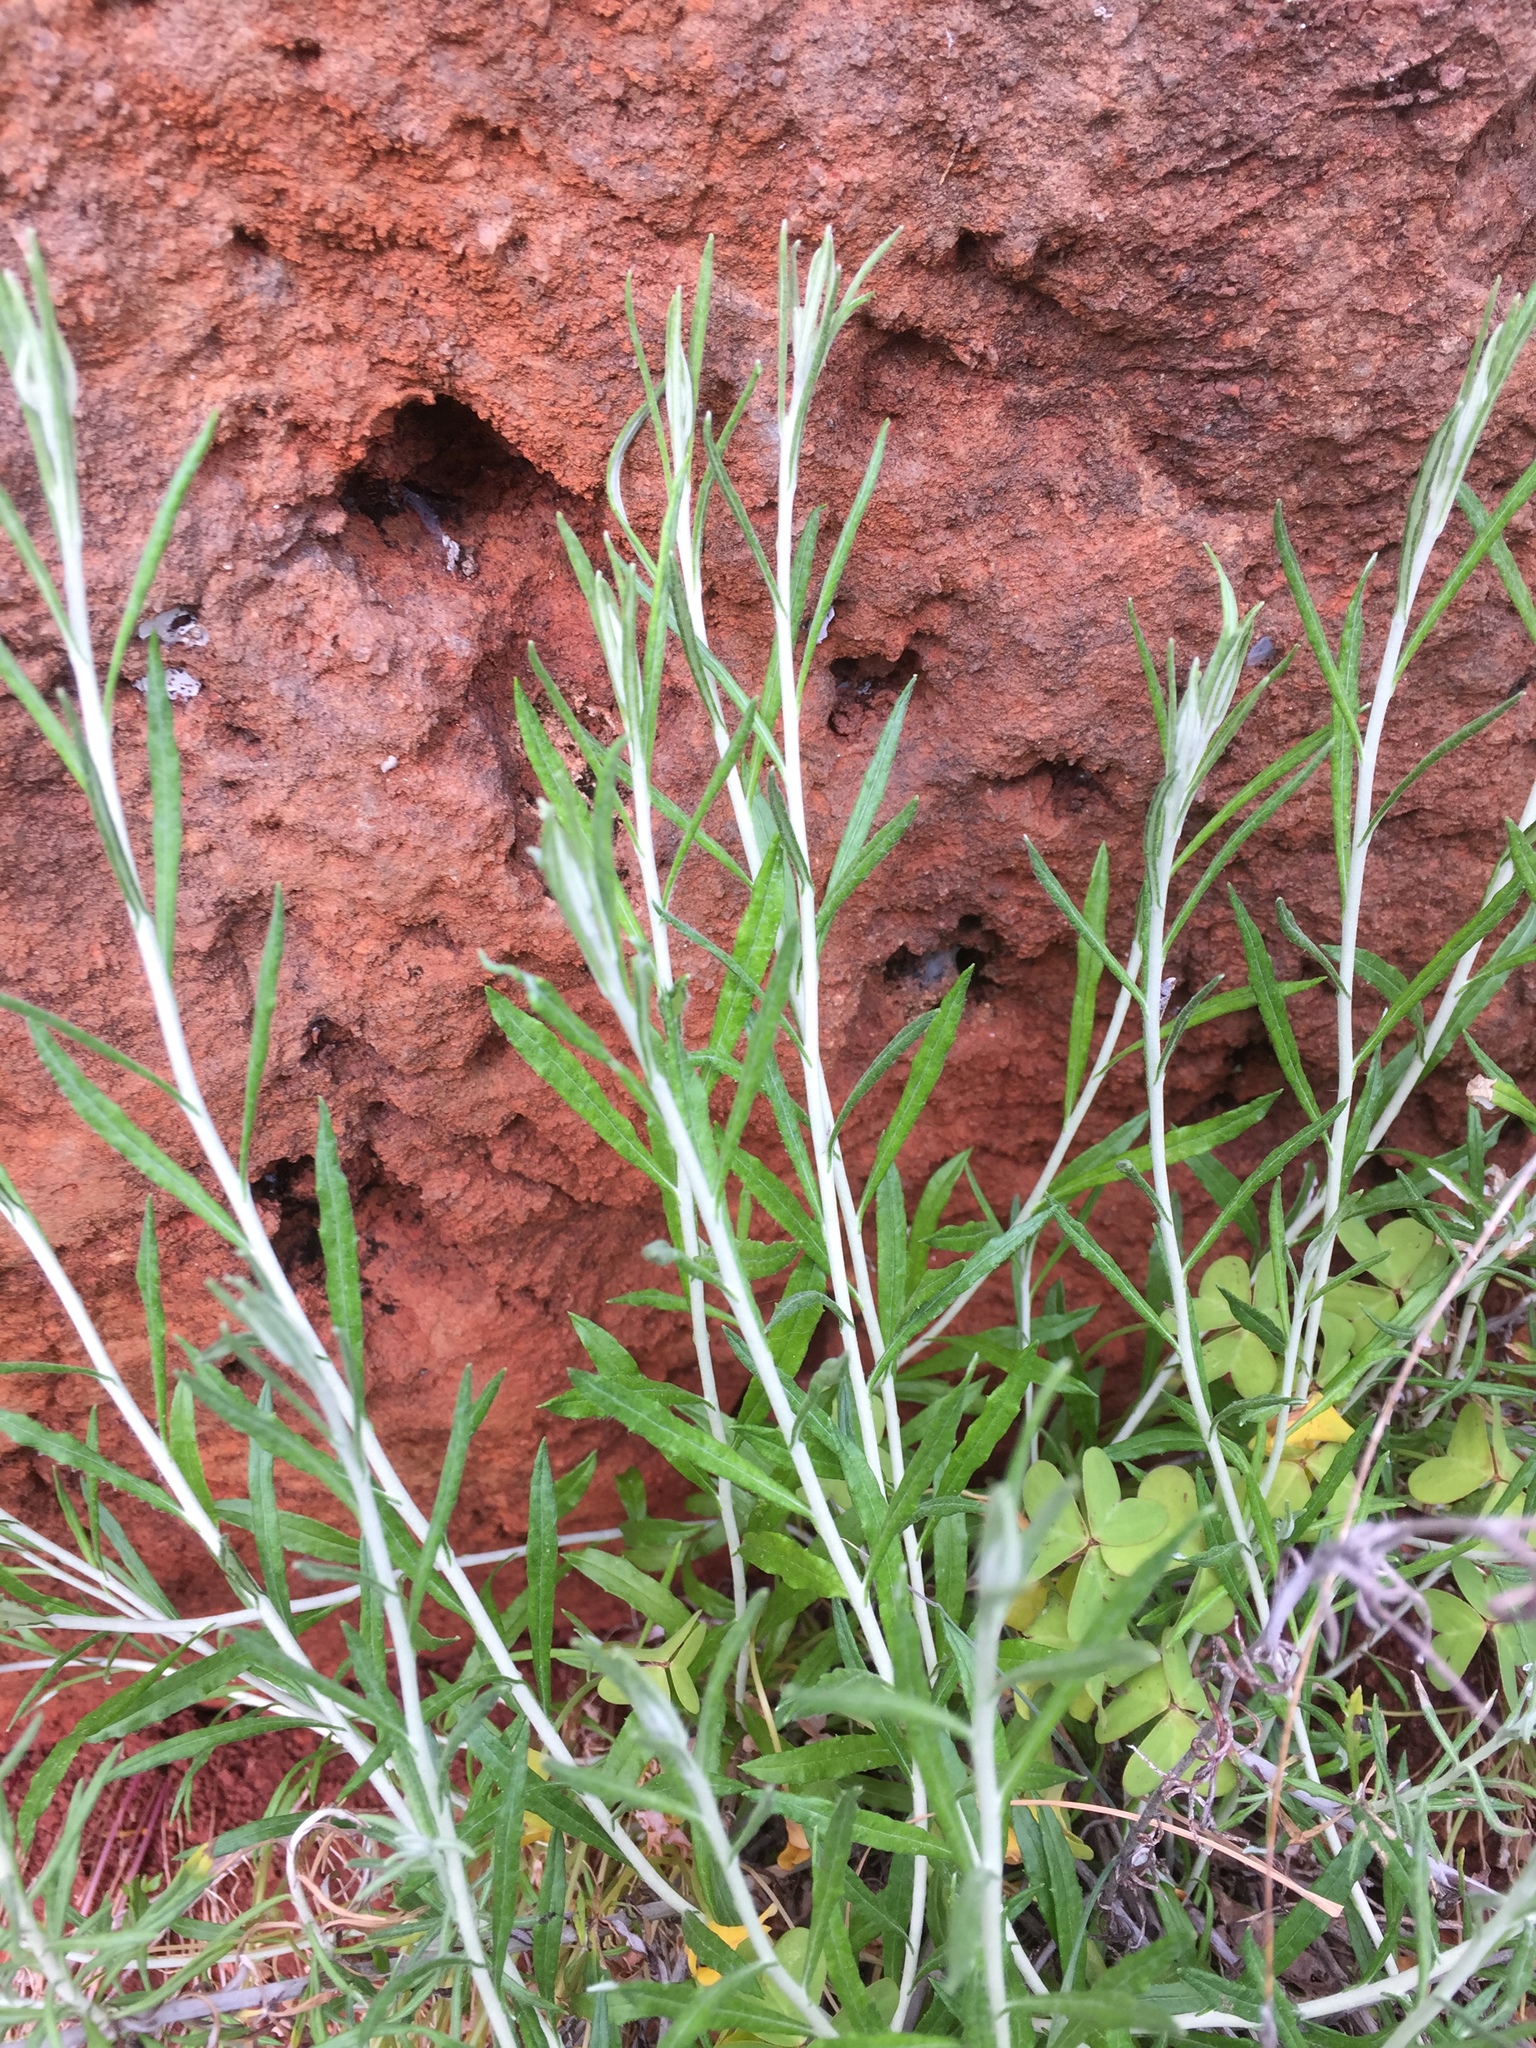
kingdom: Plantae
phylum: Tracheophyta
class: Magnoliopsida
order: Asterales
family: Asteraceae
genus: Phagnalon
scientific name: Phagnalon saxatile
